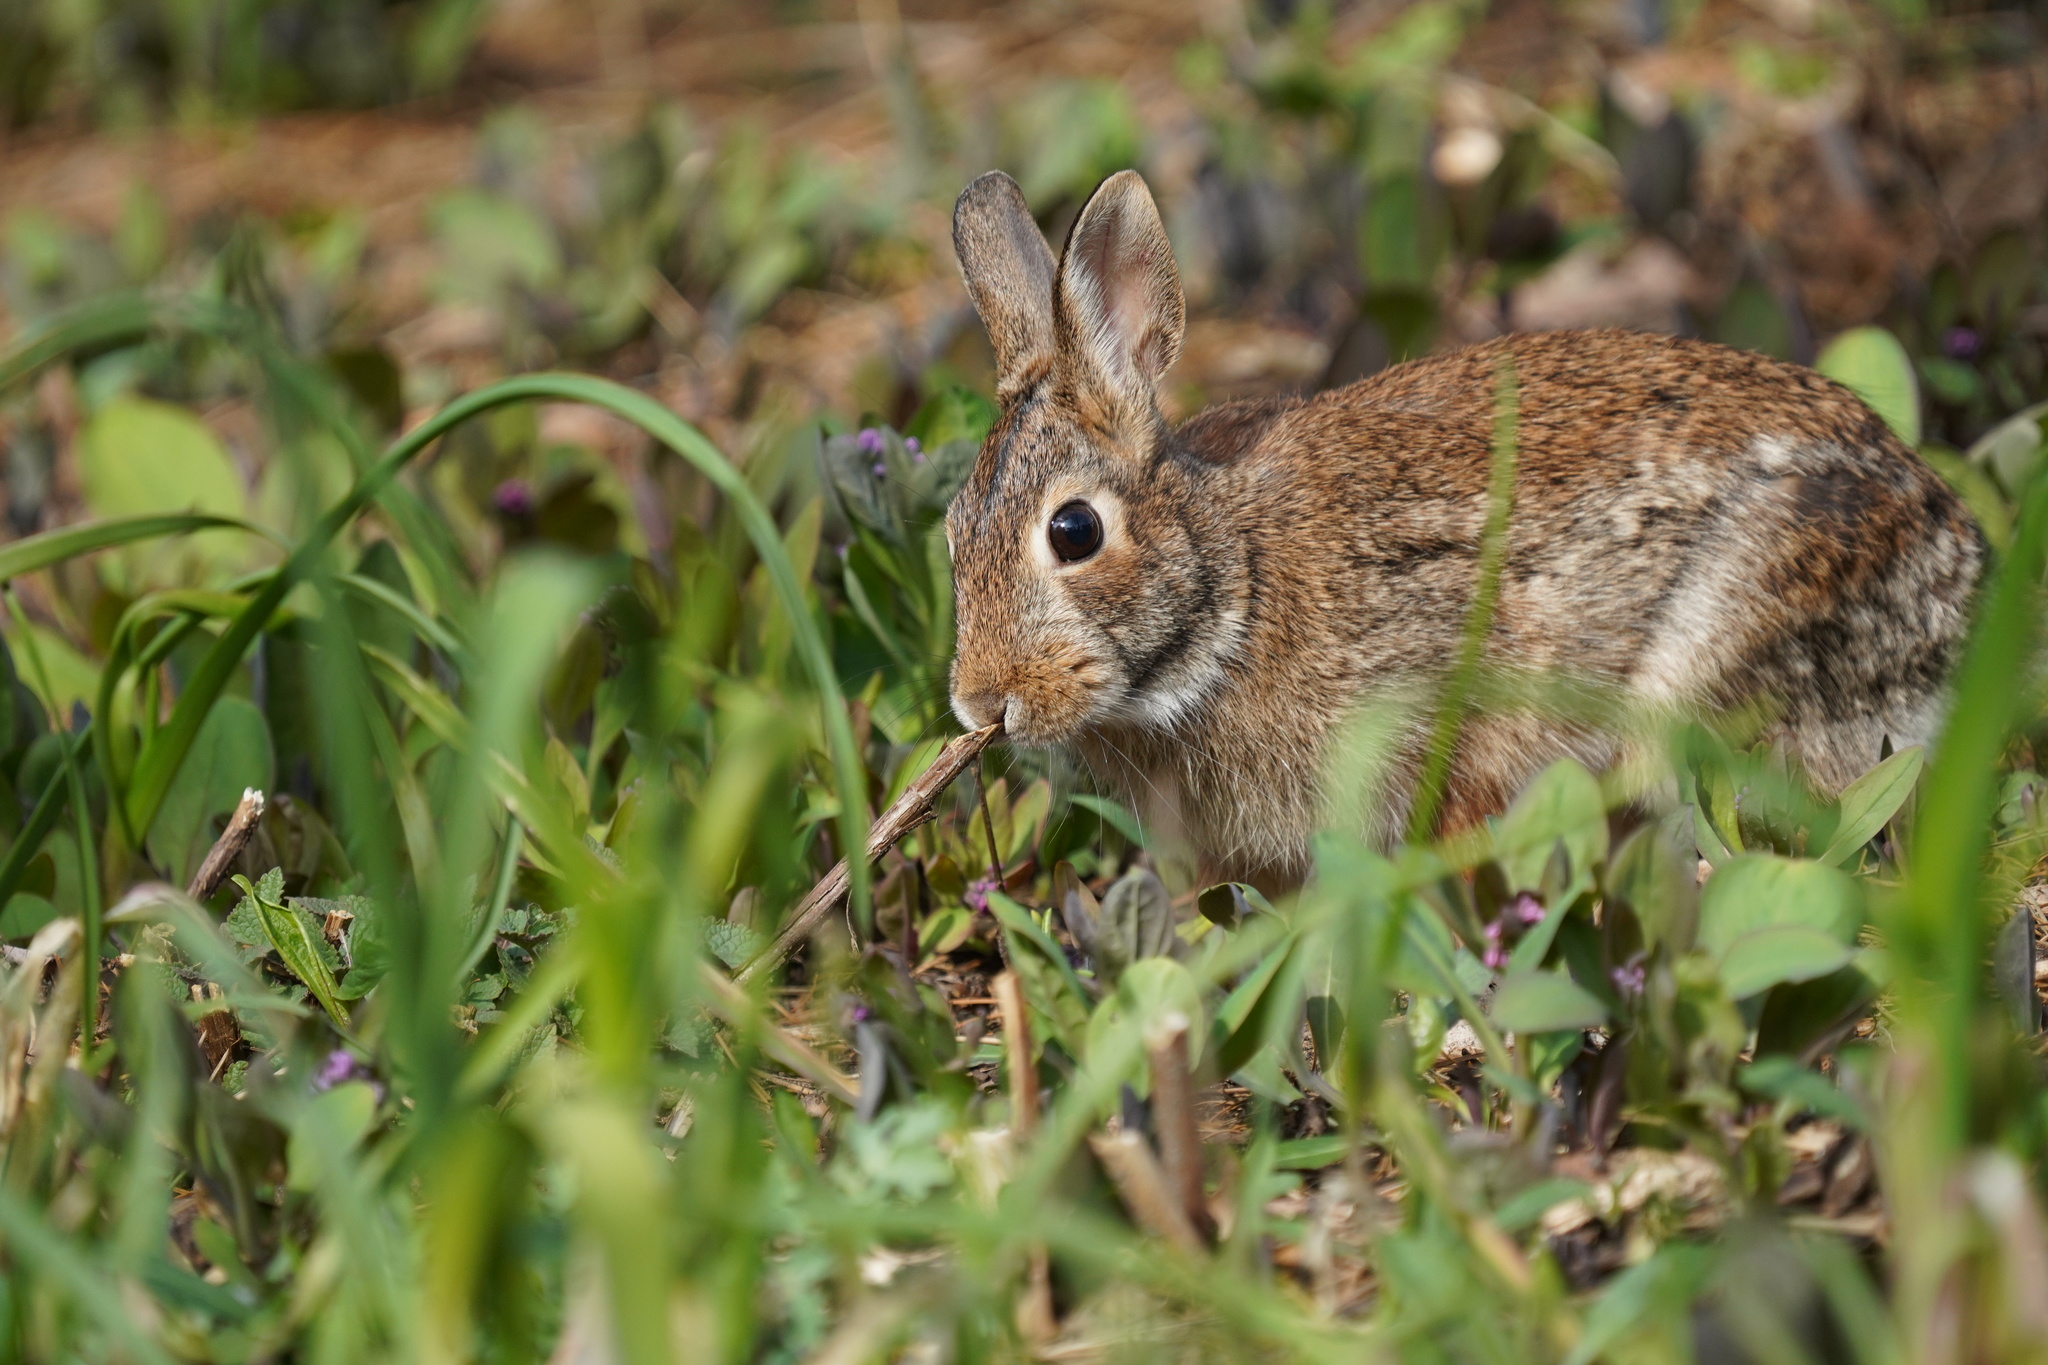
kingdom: Animalia
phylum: Chordata
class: Mammalia
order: Lagomorpha
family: Leporidae
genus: Sylvilagus
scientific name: Sylvilagus floridanus
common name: Eastern cottontail
